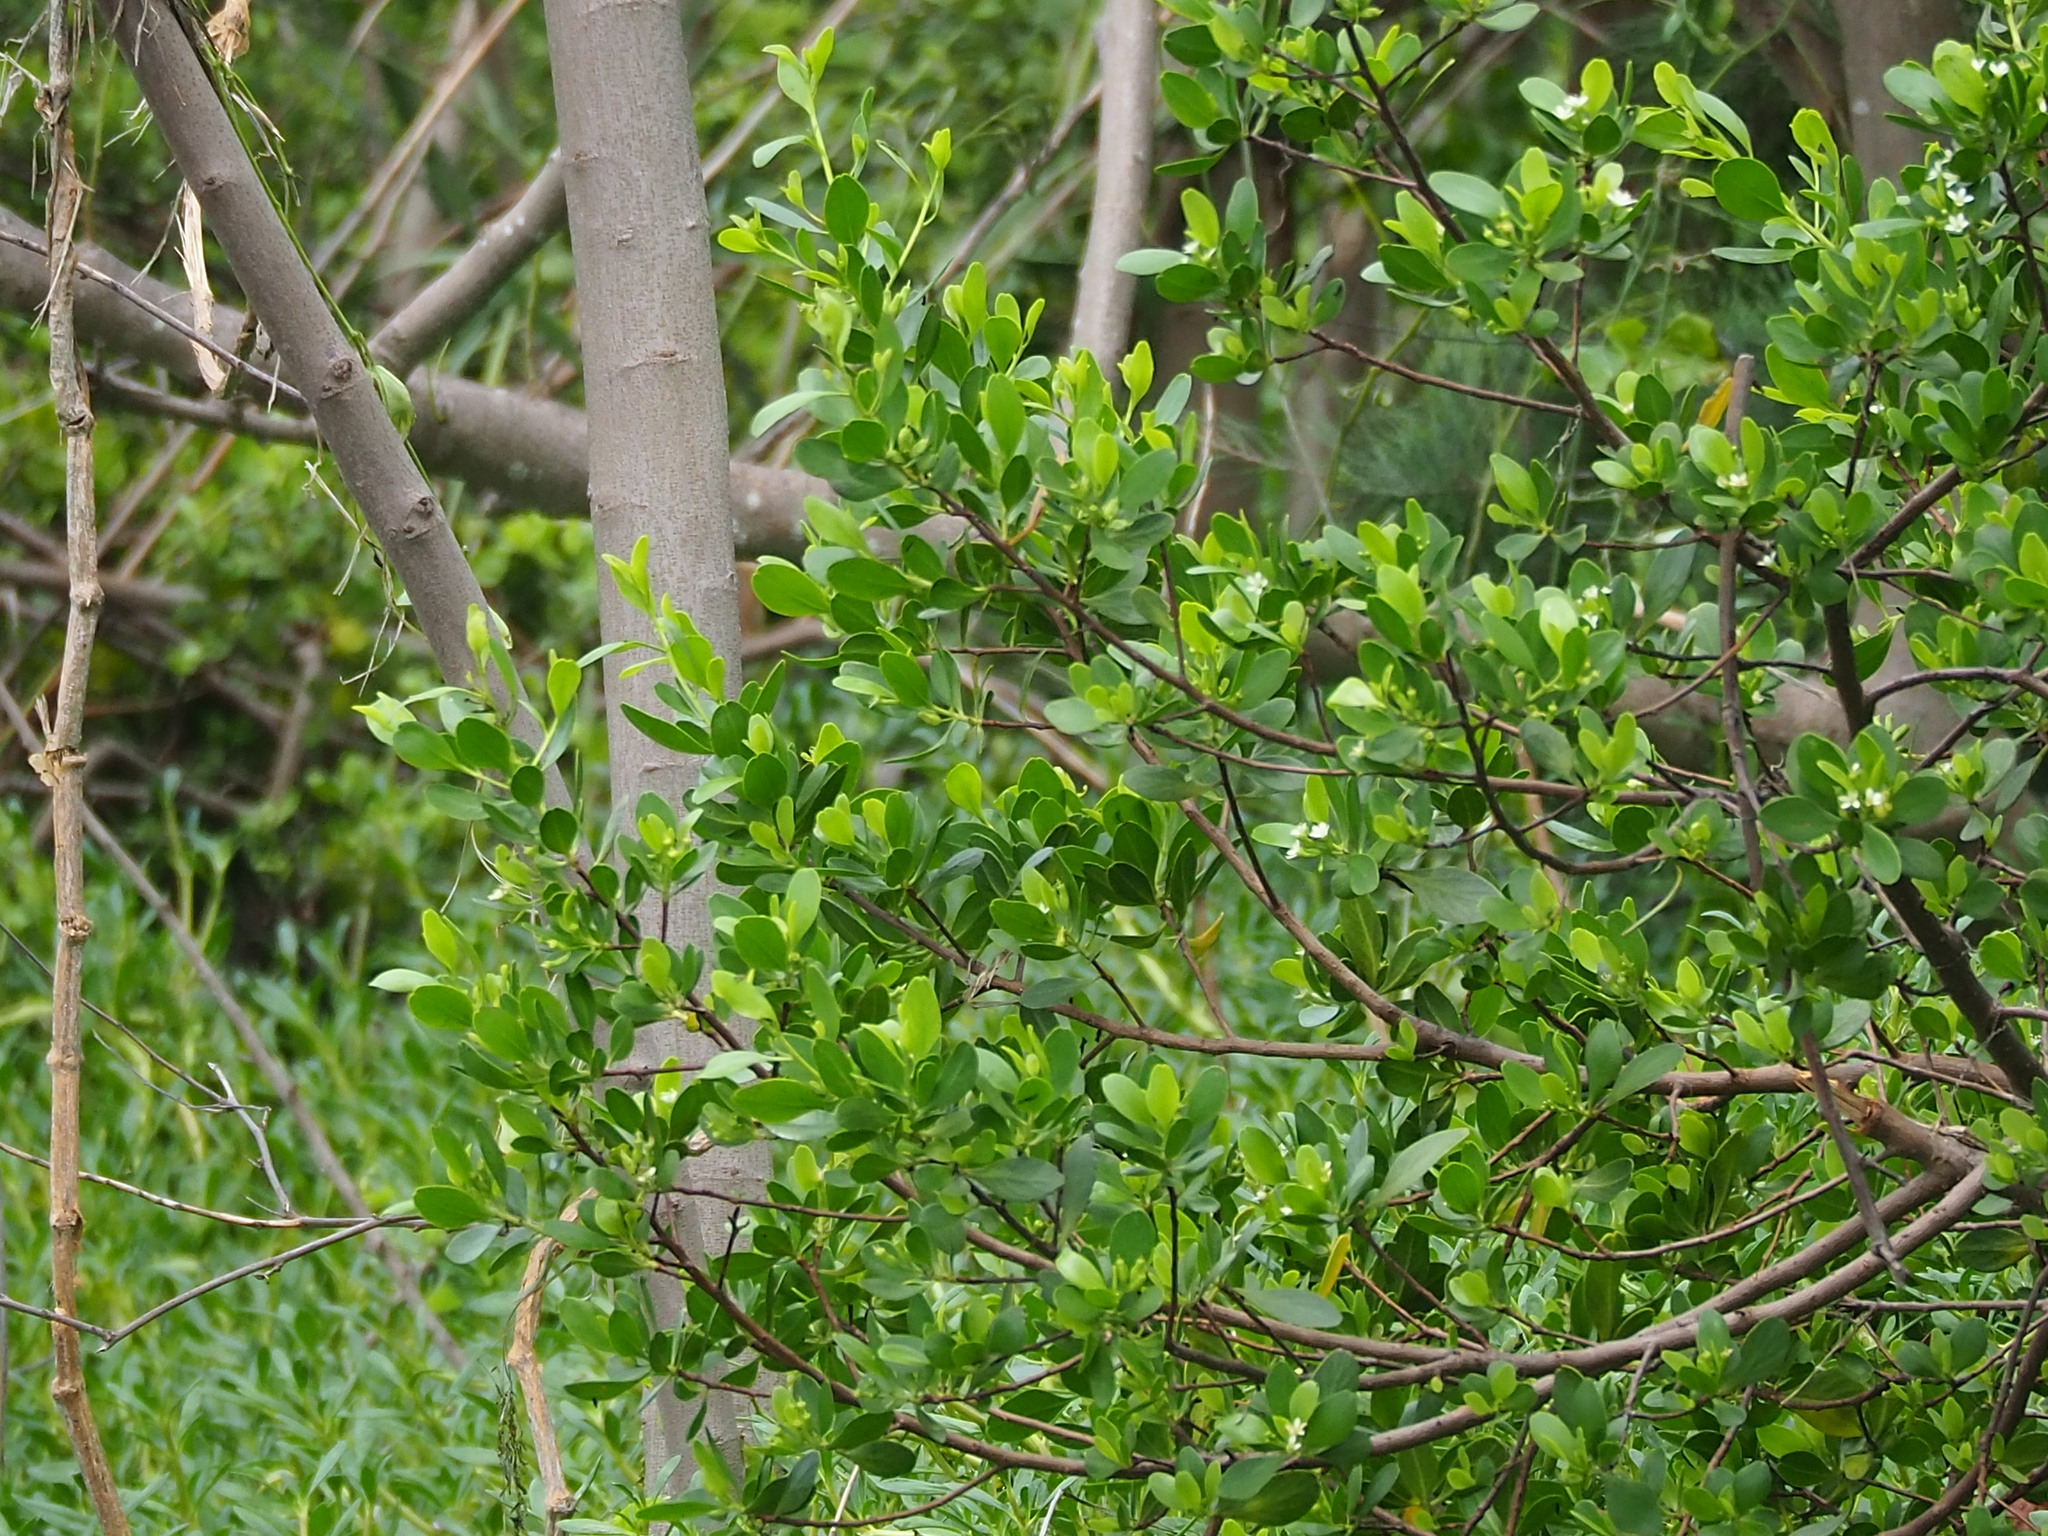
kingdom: Plantae
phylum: Tracheophyta
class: Magnoliopsida
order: Myrtales
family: Combretaceae
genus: Lumnitzera
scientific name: Lumnitzera racemosa
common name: White-flowered black mangrove
